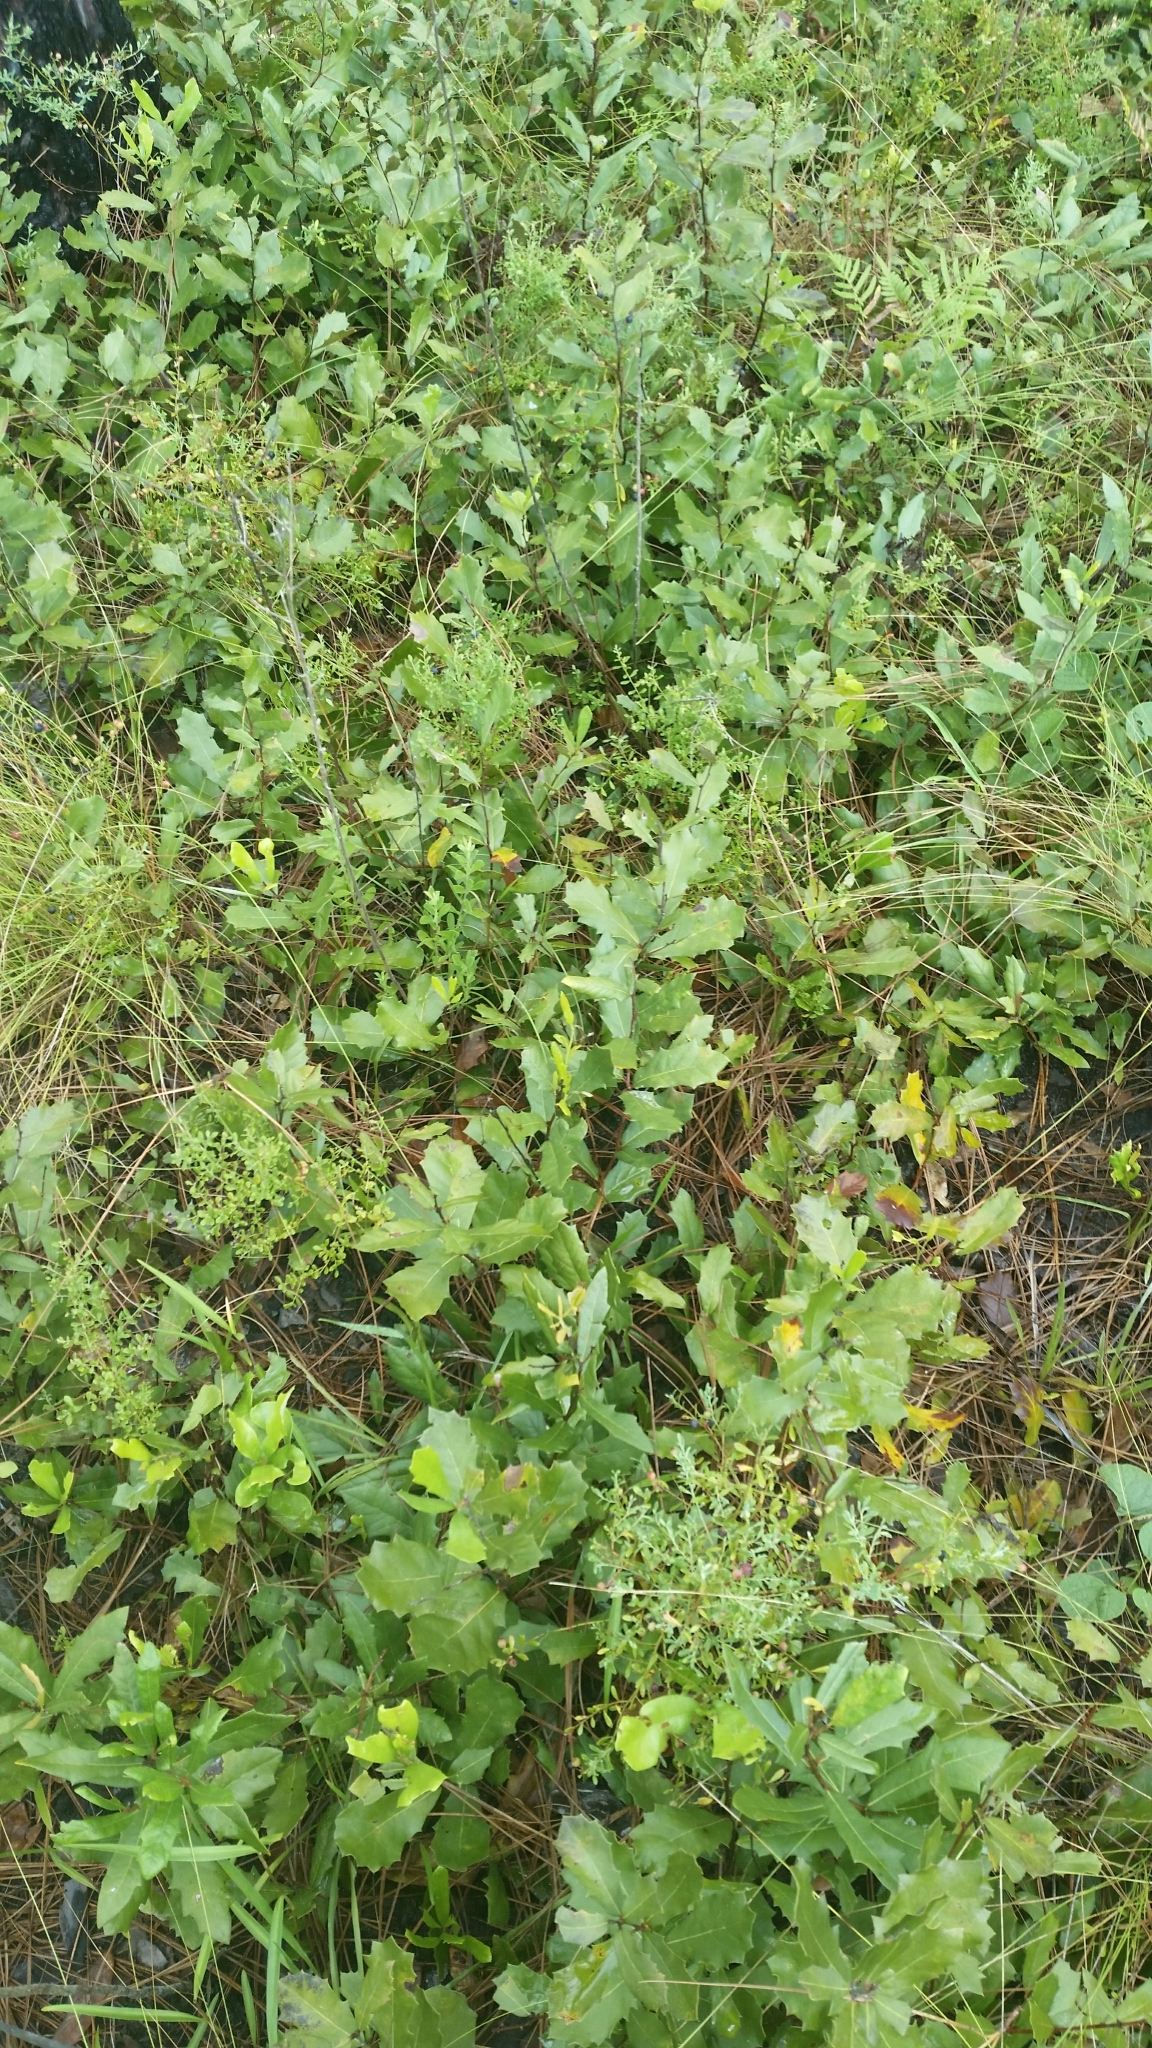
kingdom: Plantae
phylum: Tracheophyta
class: Magnoliopsida
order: Fagales
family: Fagaceae
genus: Quercus
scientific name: Quercus minima
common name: Dwarf live oak
